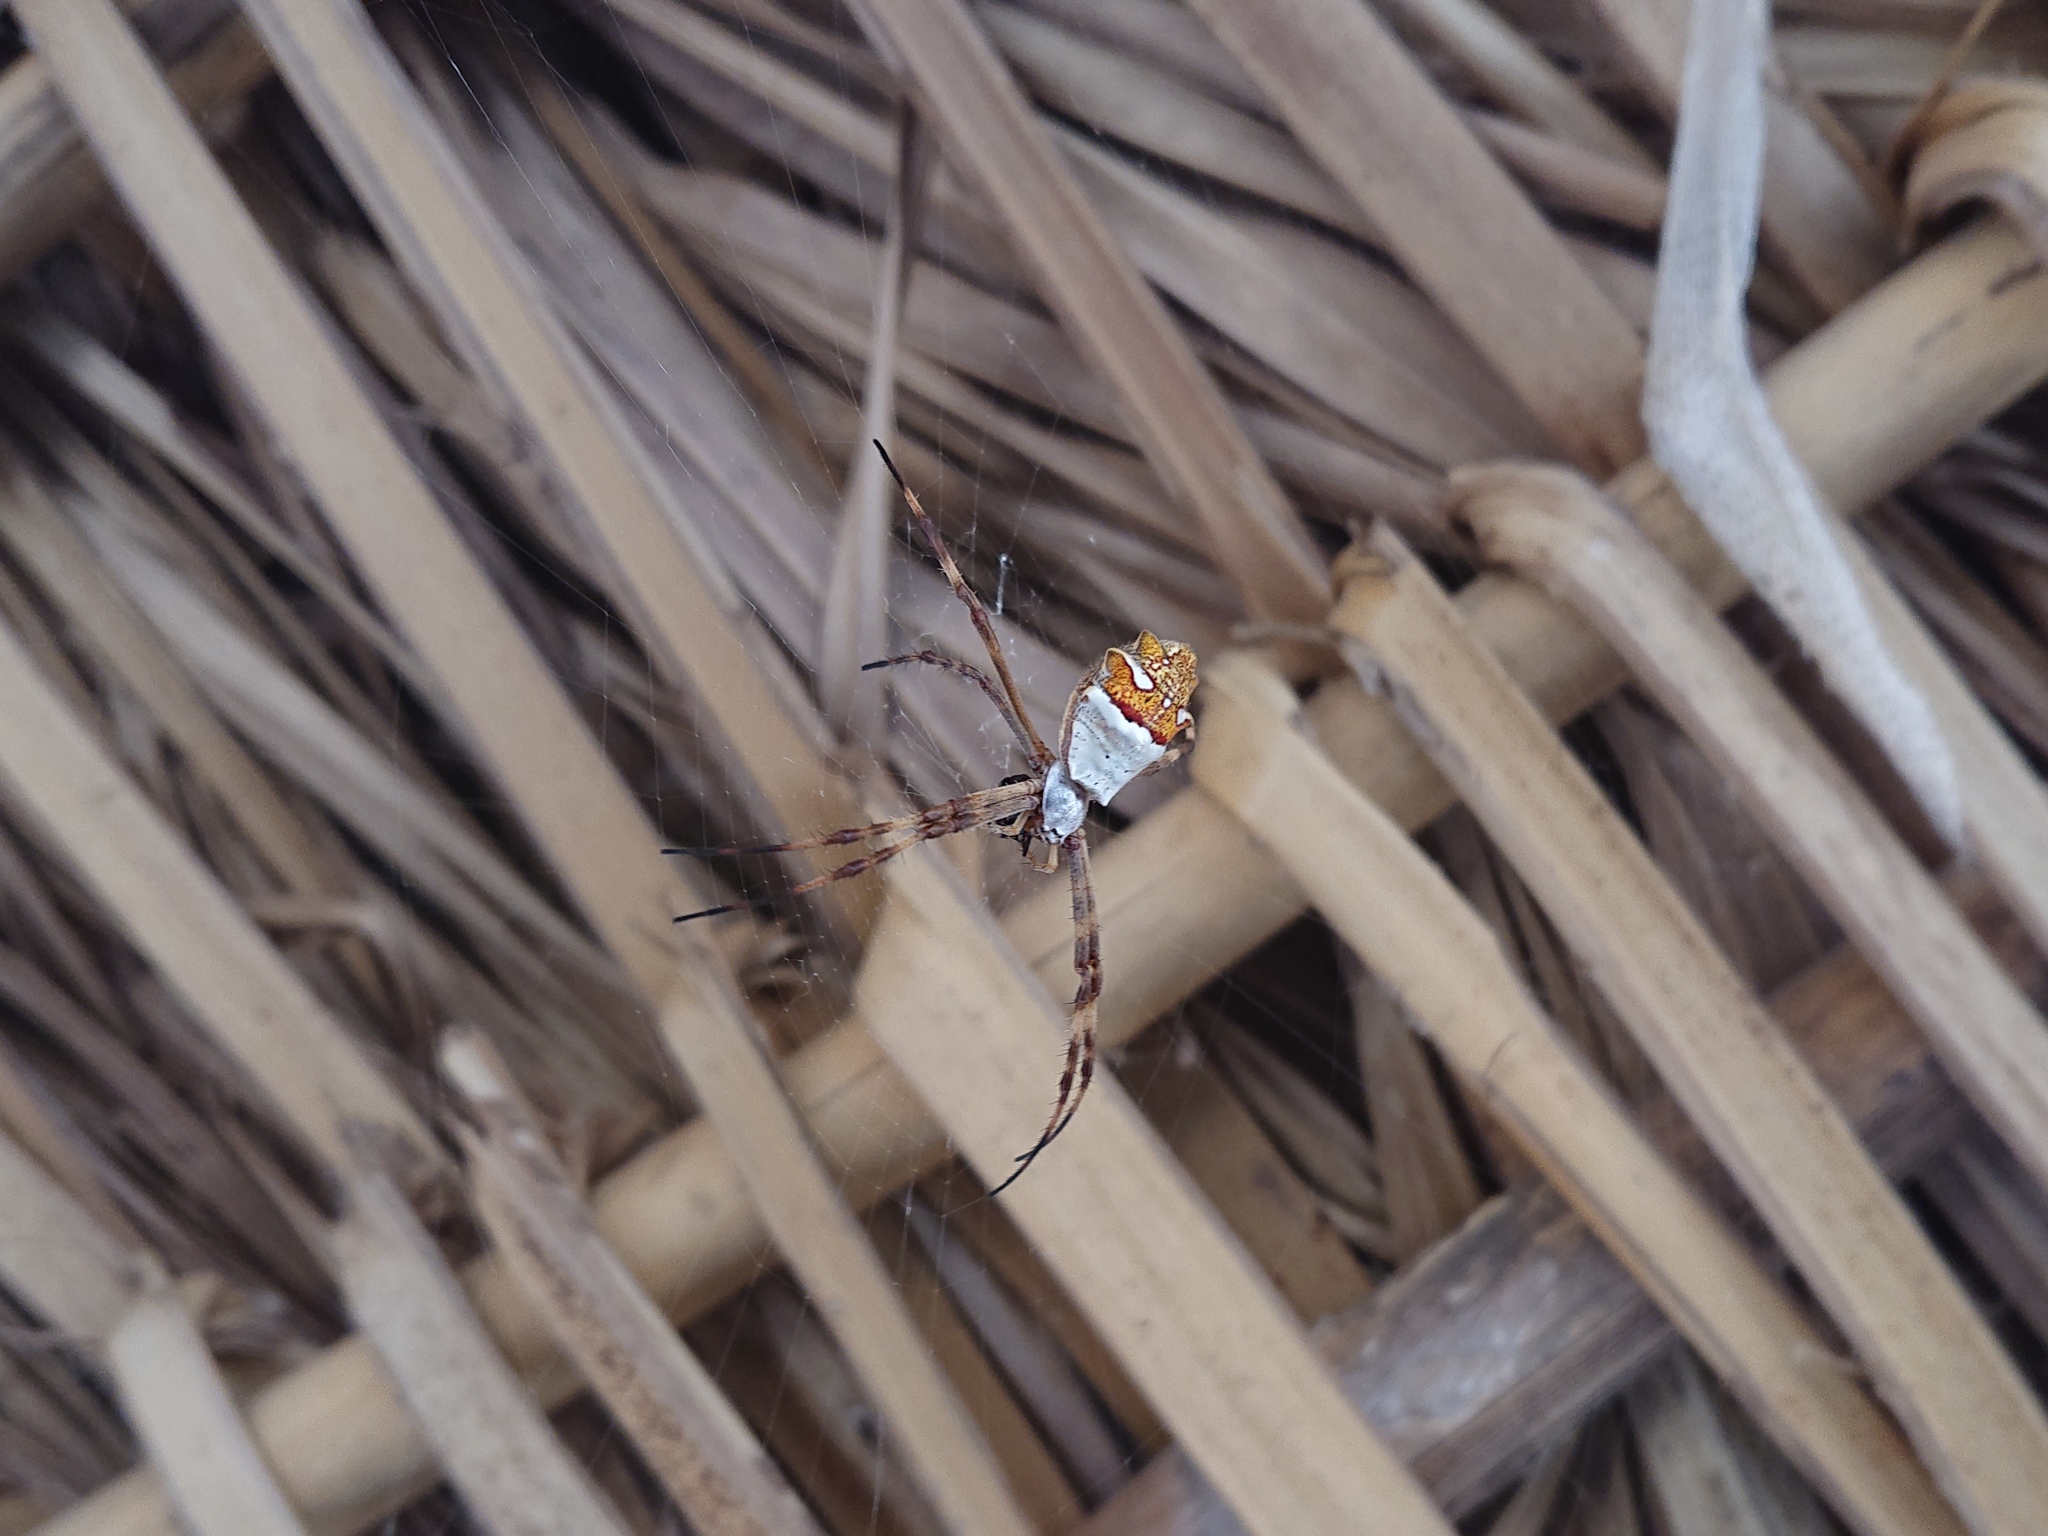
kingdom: Animalia
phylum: Arthropoda
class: Arachnida
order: Araneae
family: Araneidae
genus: Argiope
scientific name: Argiope argentata
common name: Orb weavers
